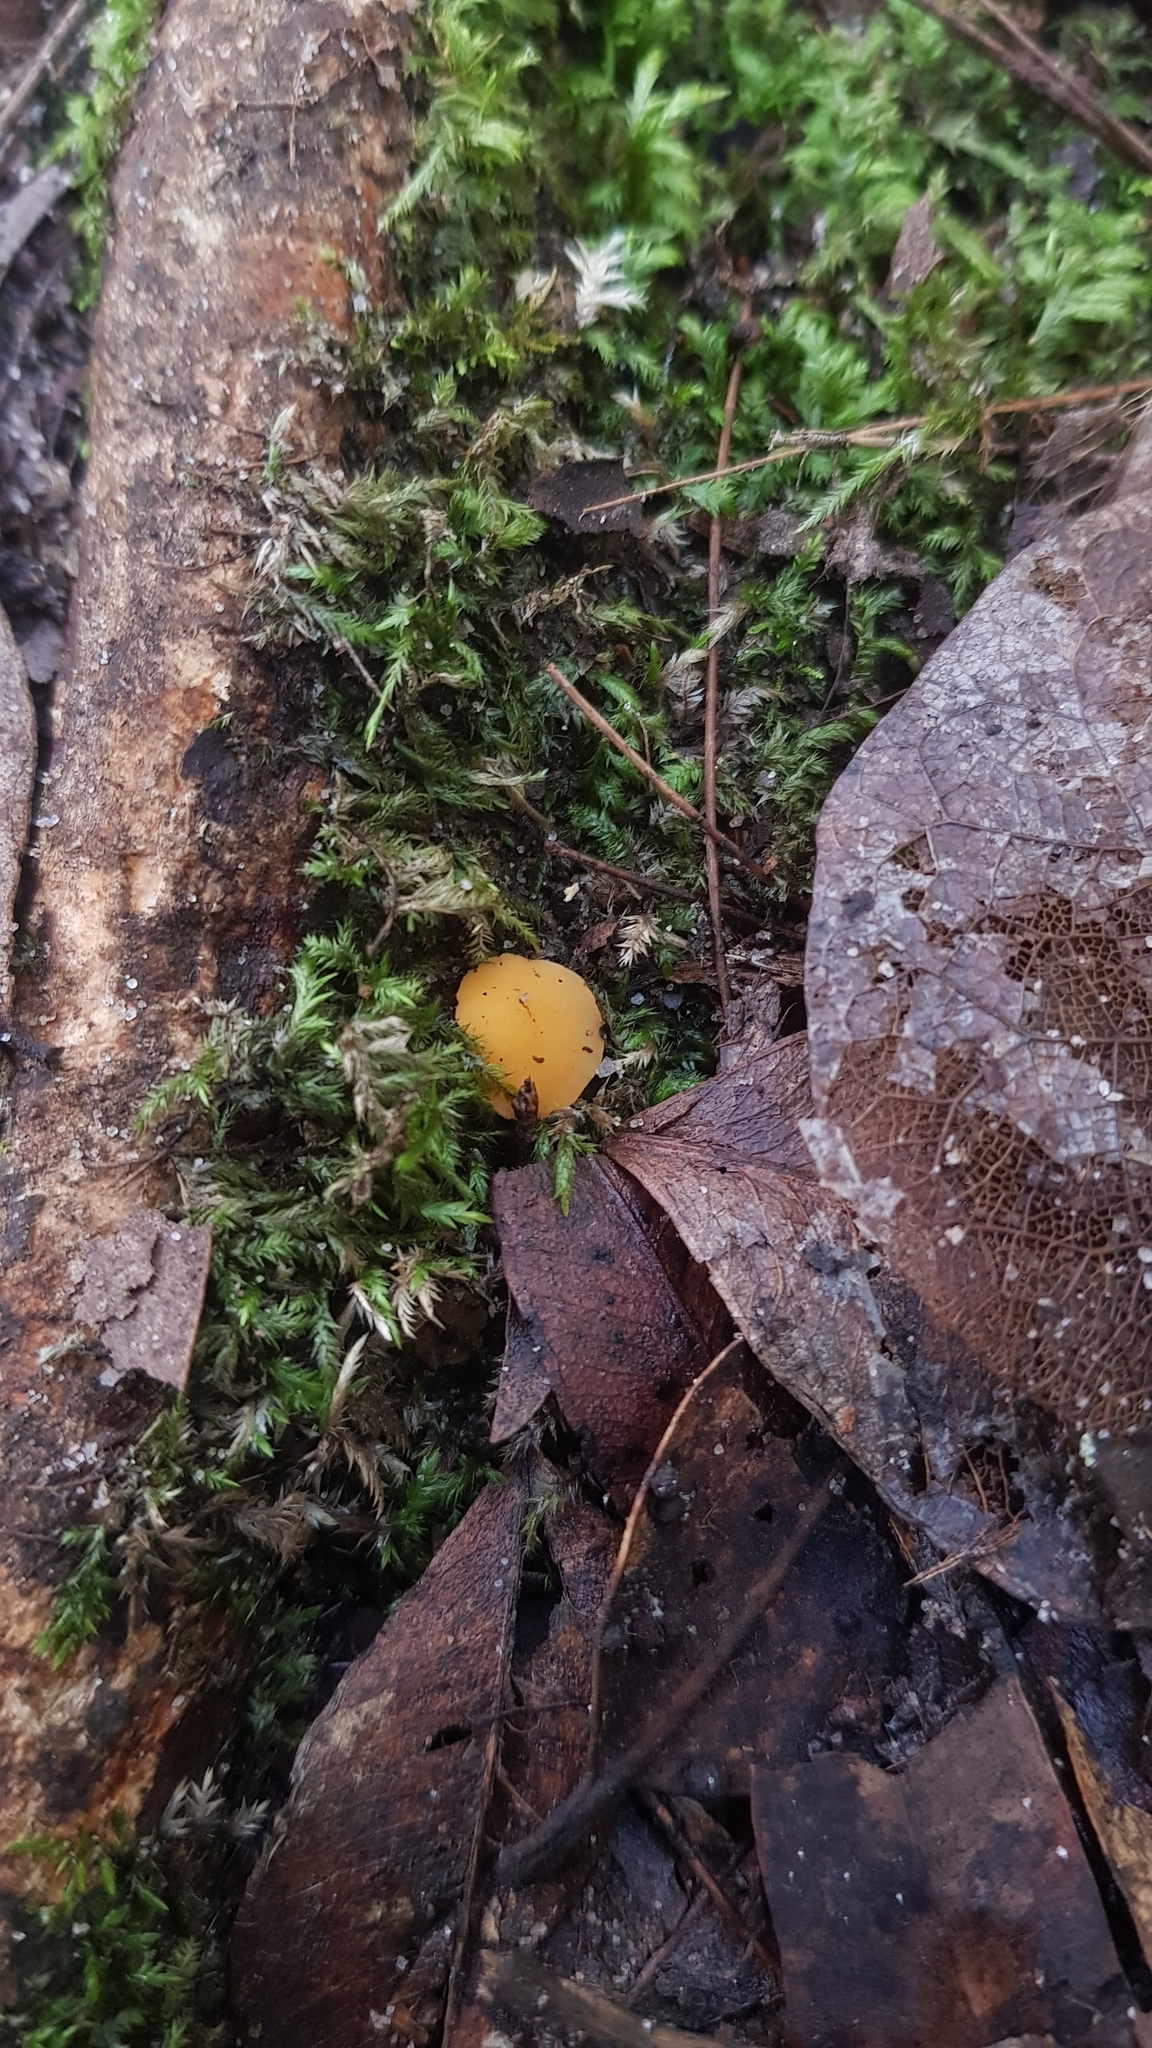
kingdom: Fungi
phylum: Ascomycota
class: Leotiomycetes
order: Helotiales
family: Helotiaceae
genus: Phaeohelotium
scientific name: Phaeohelotium baileyanum
